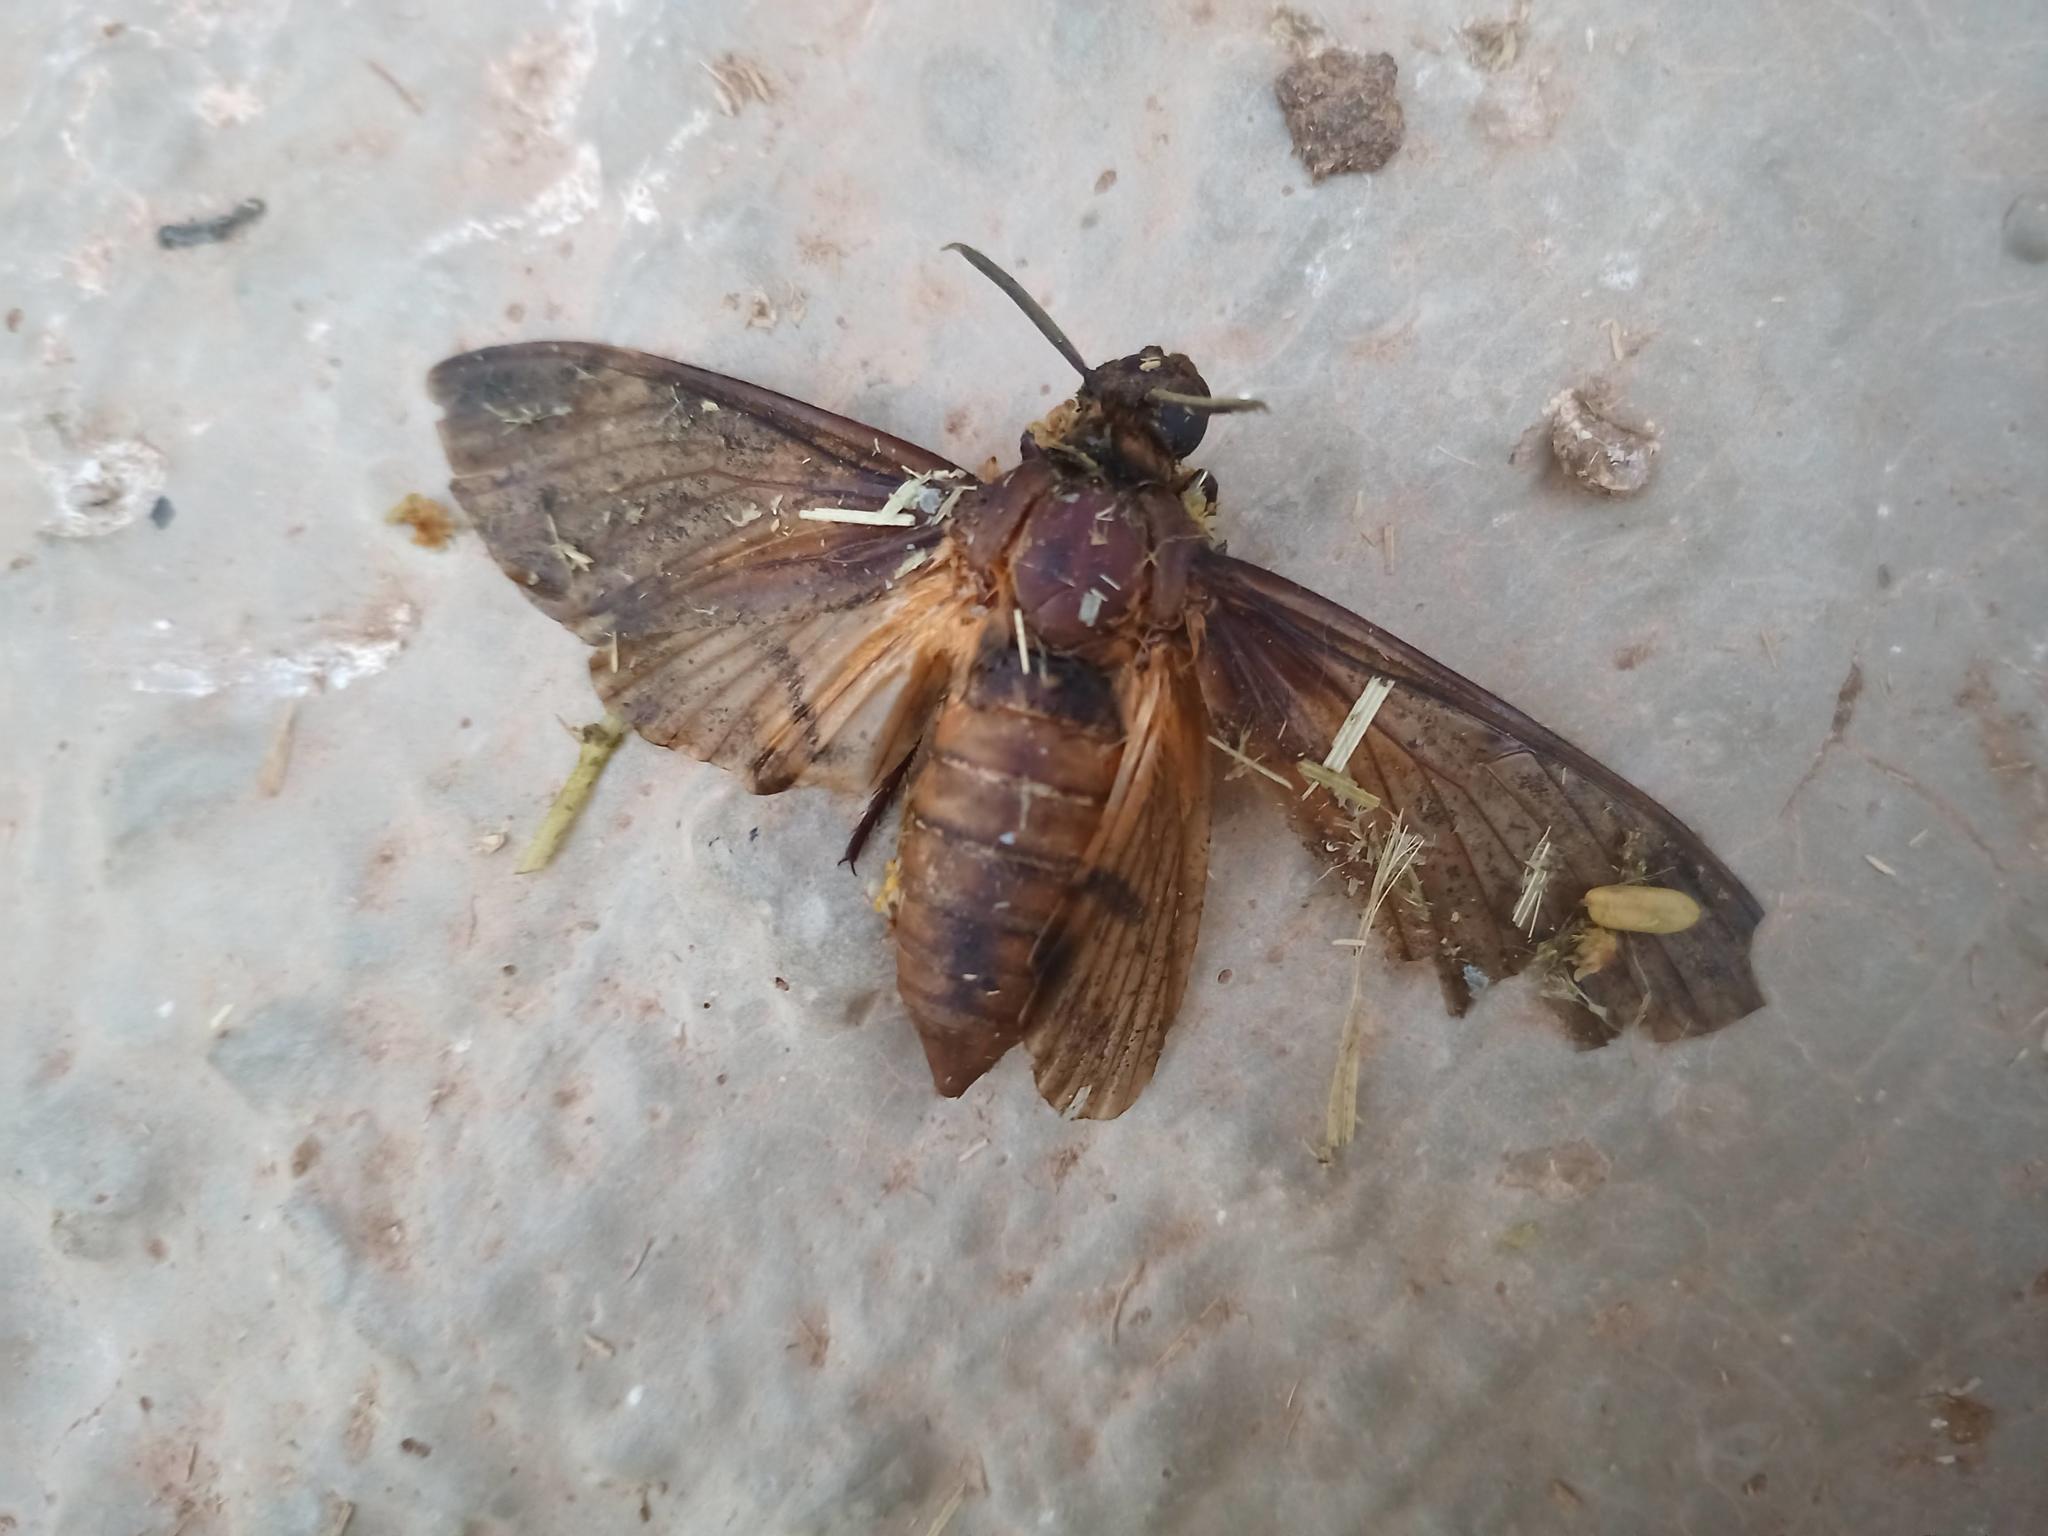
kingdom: Animalia
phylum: Arthropoda
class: Insecta
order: Lepidoptera
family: Sphingidae
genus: Acherontia
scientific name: Acherontia atropos
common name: Death's-head hawk moth
